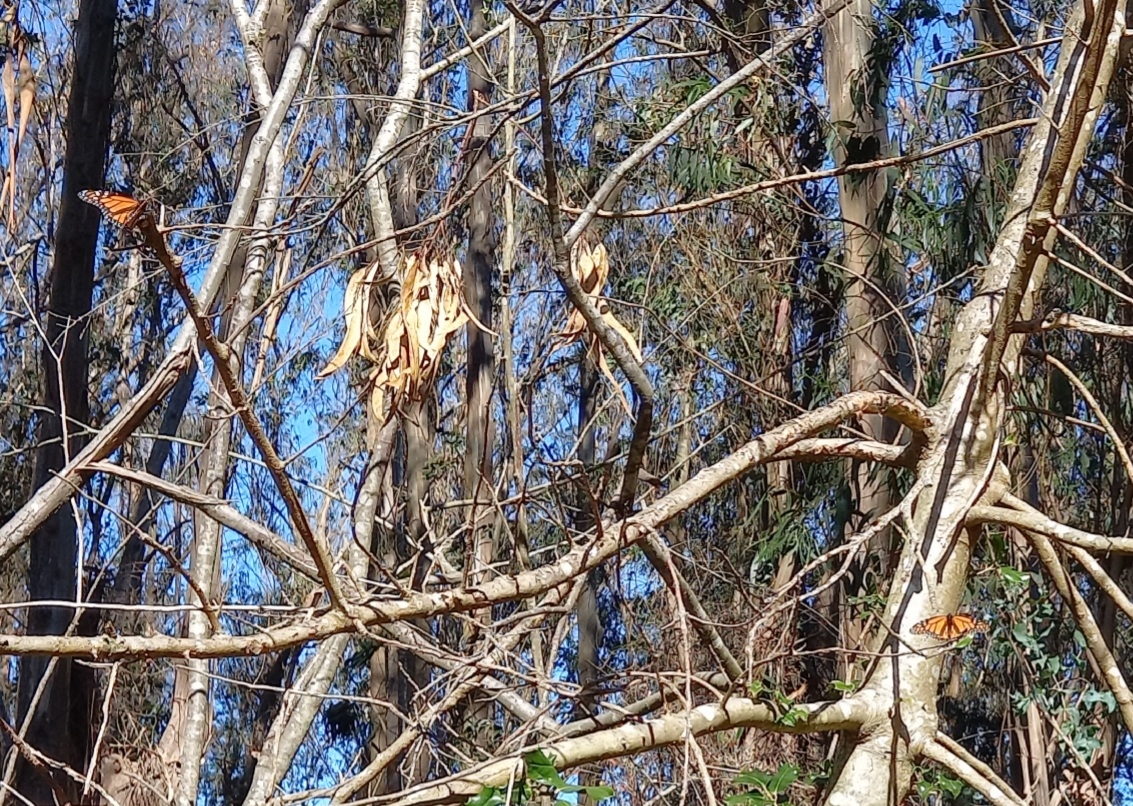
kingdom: Animalia
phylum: Arthropoda
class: Insecta
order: Lepidoptera
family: Nymphalidae
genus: Danaus
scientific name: Danaus plexippus
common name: Monarch
